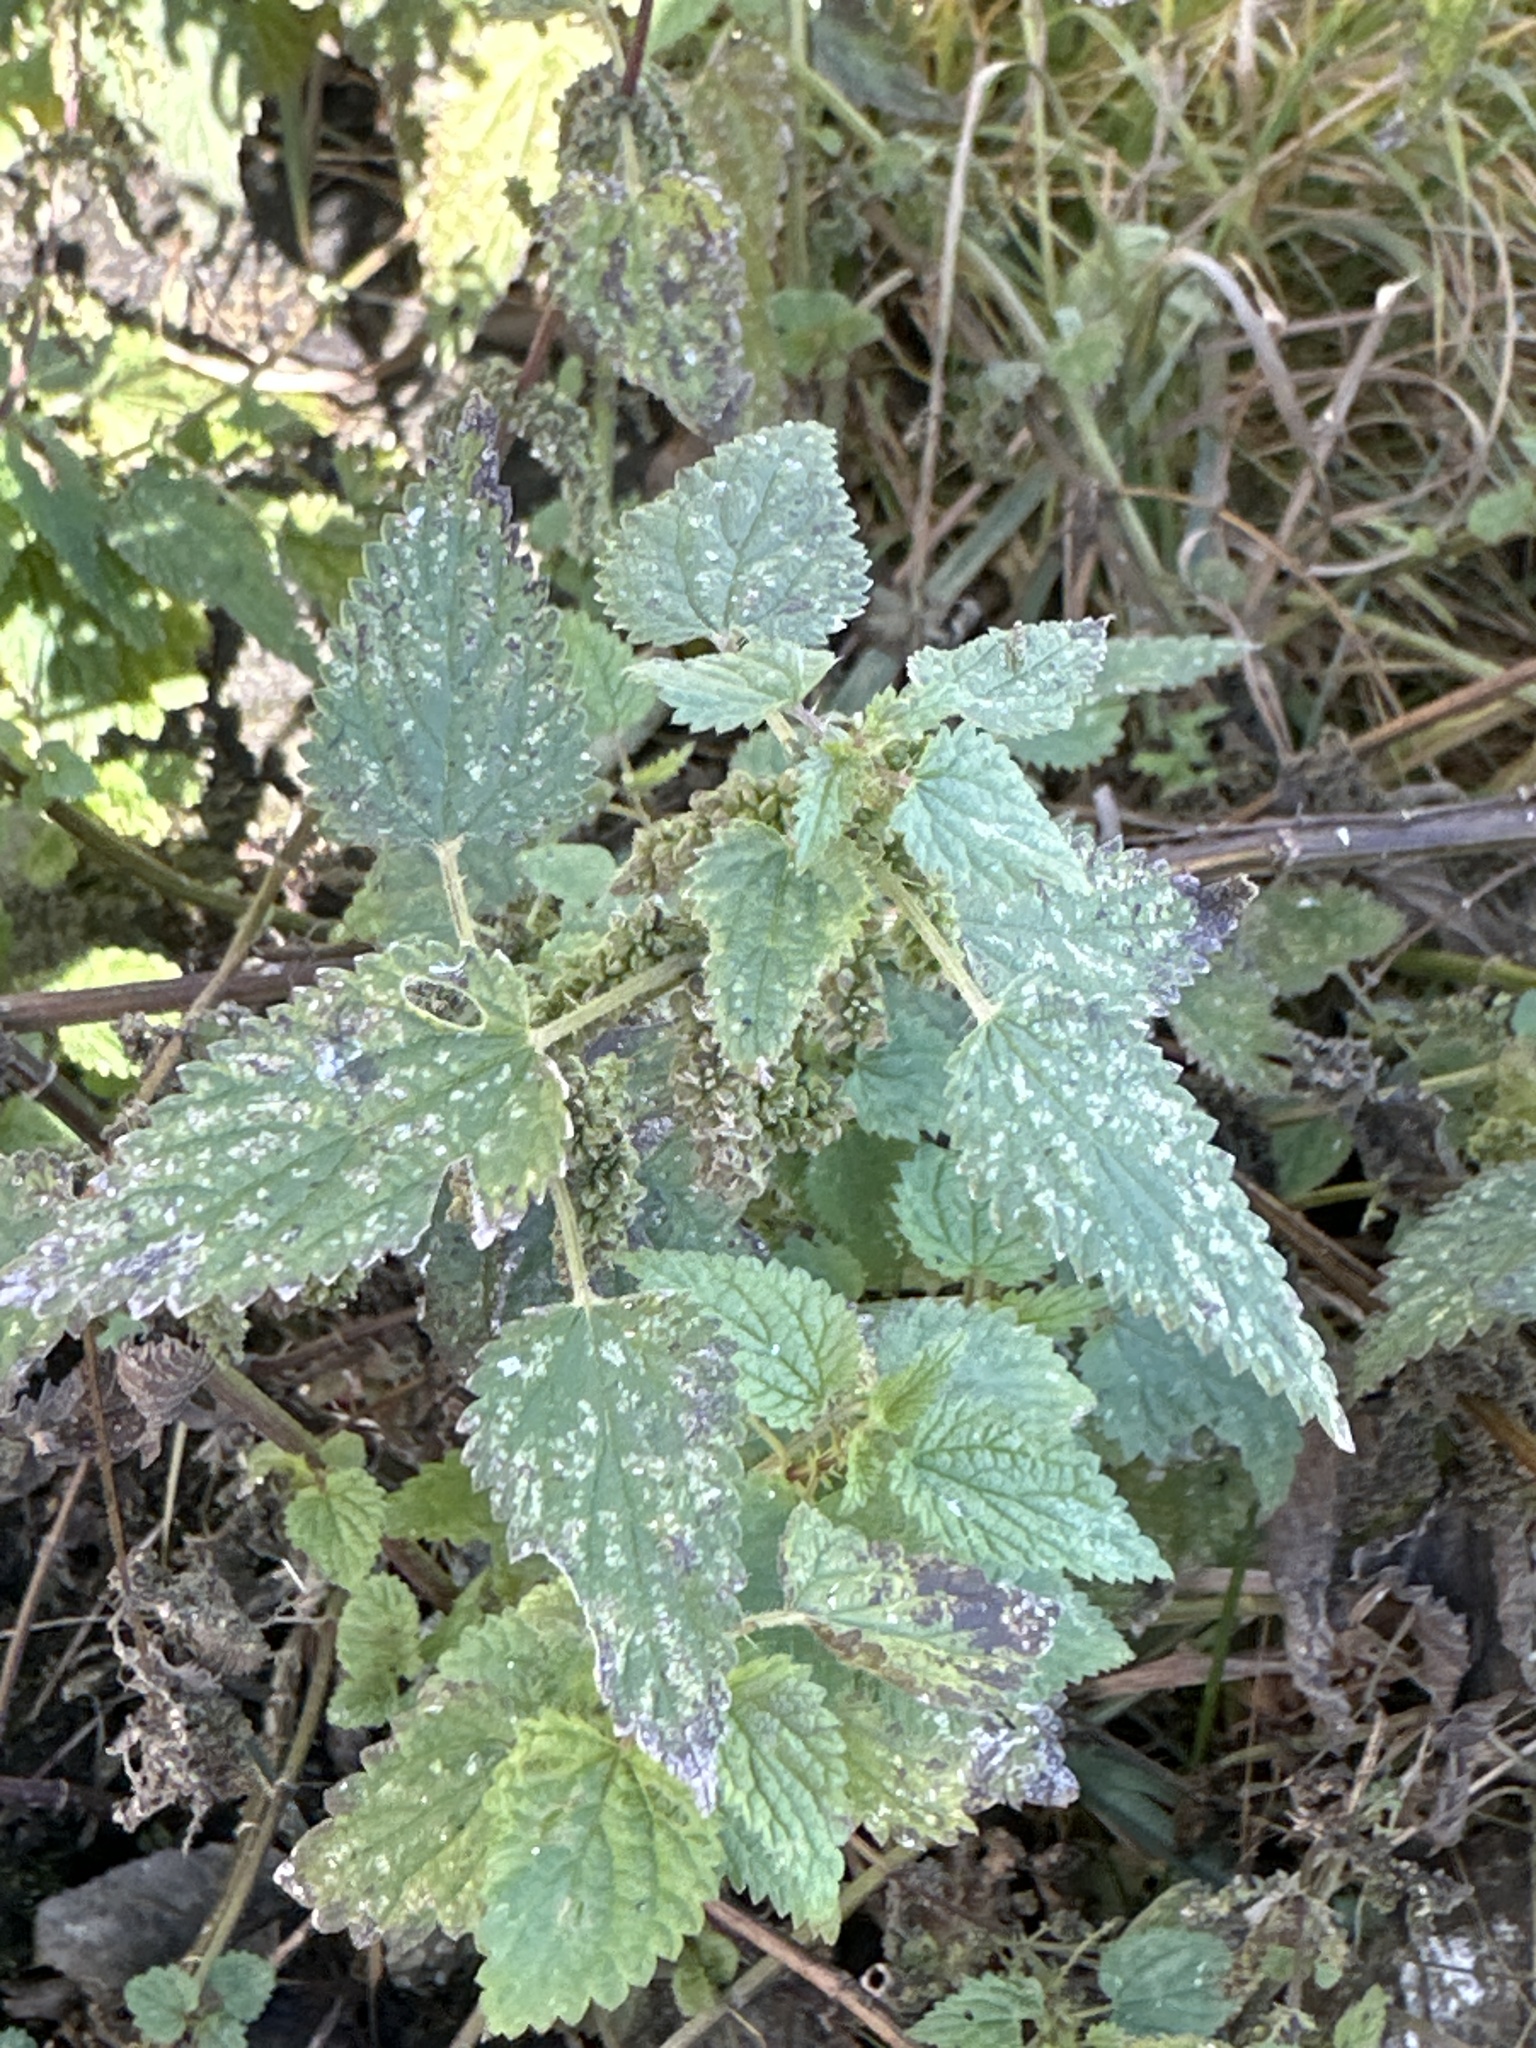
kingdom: Plantae
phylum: Tracheophyta
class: Magnoliopsida
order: Rosales
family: Urticaceae
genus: Urtica
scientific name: Urtica dioica
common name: Common nettle
